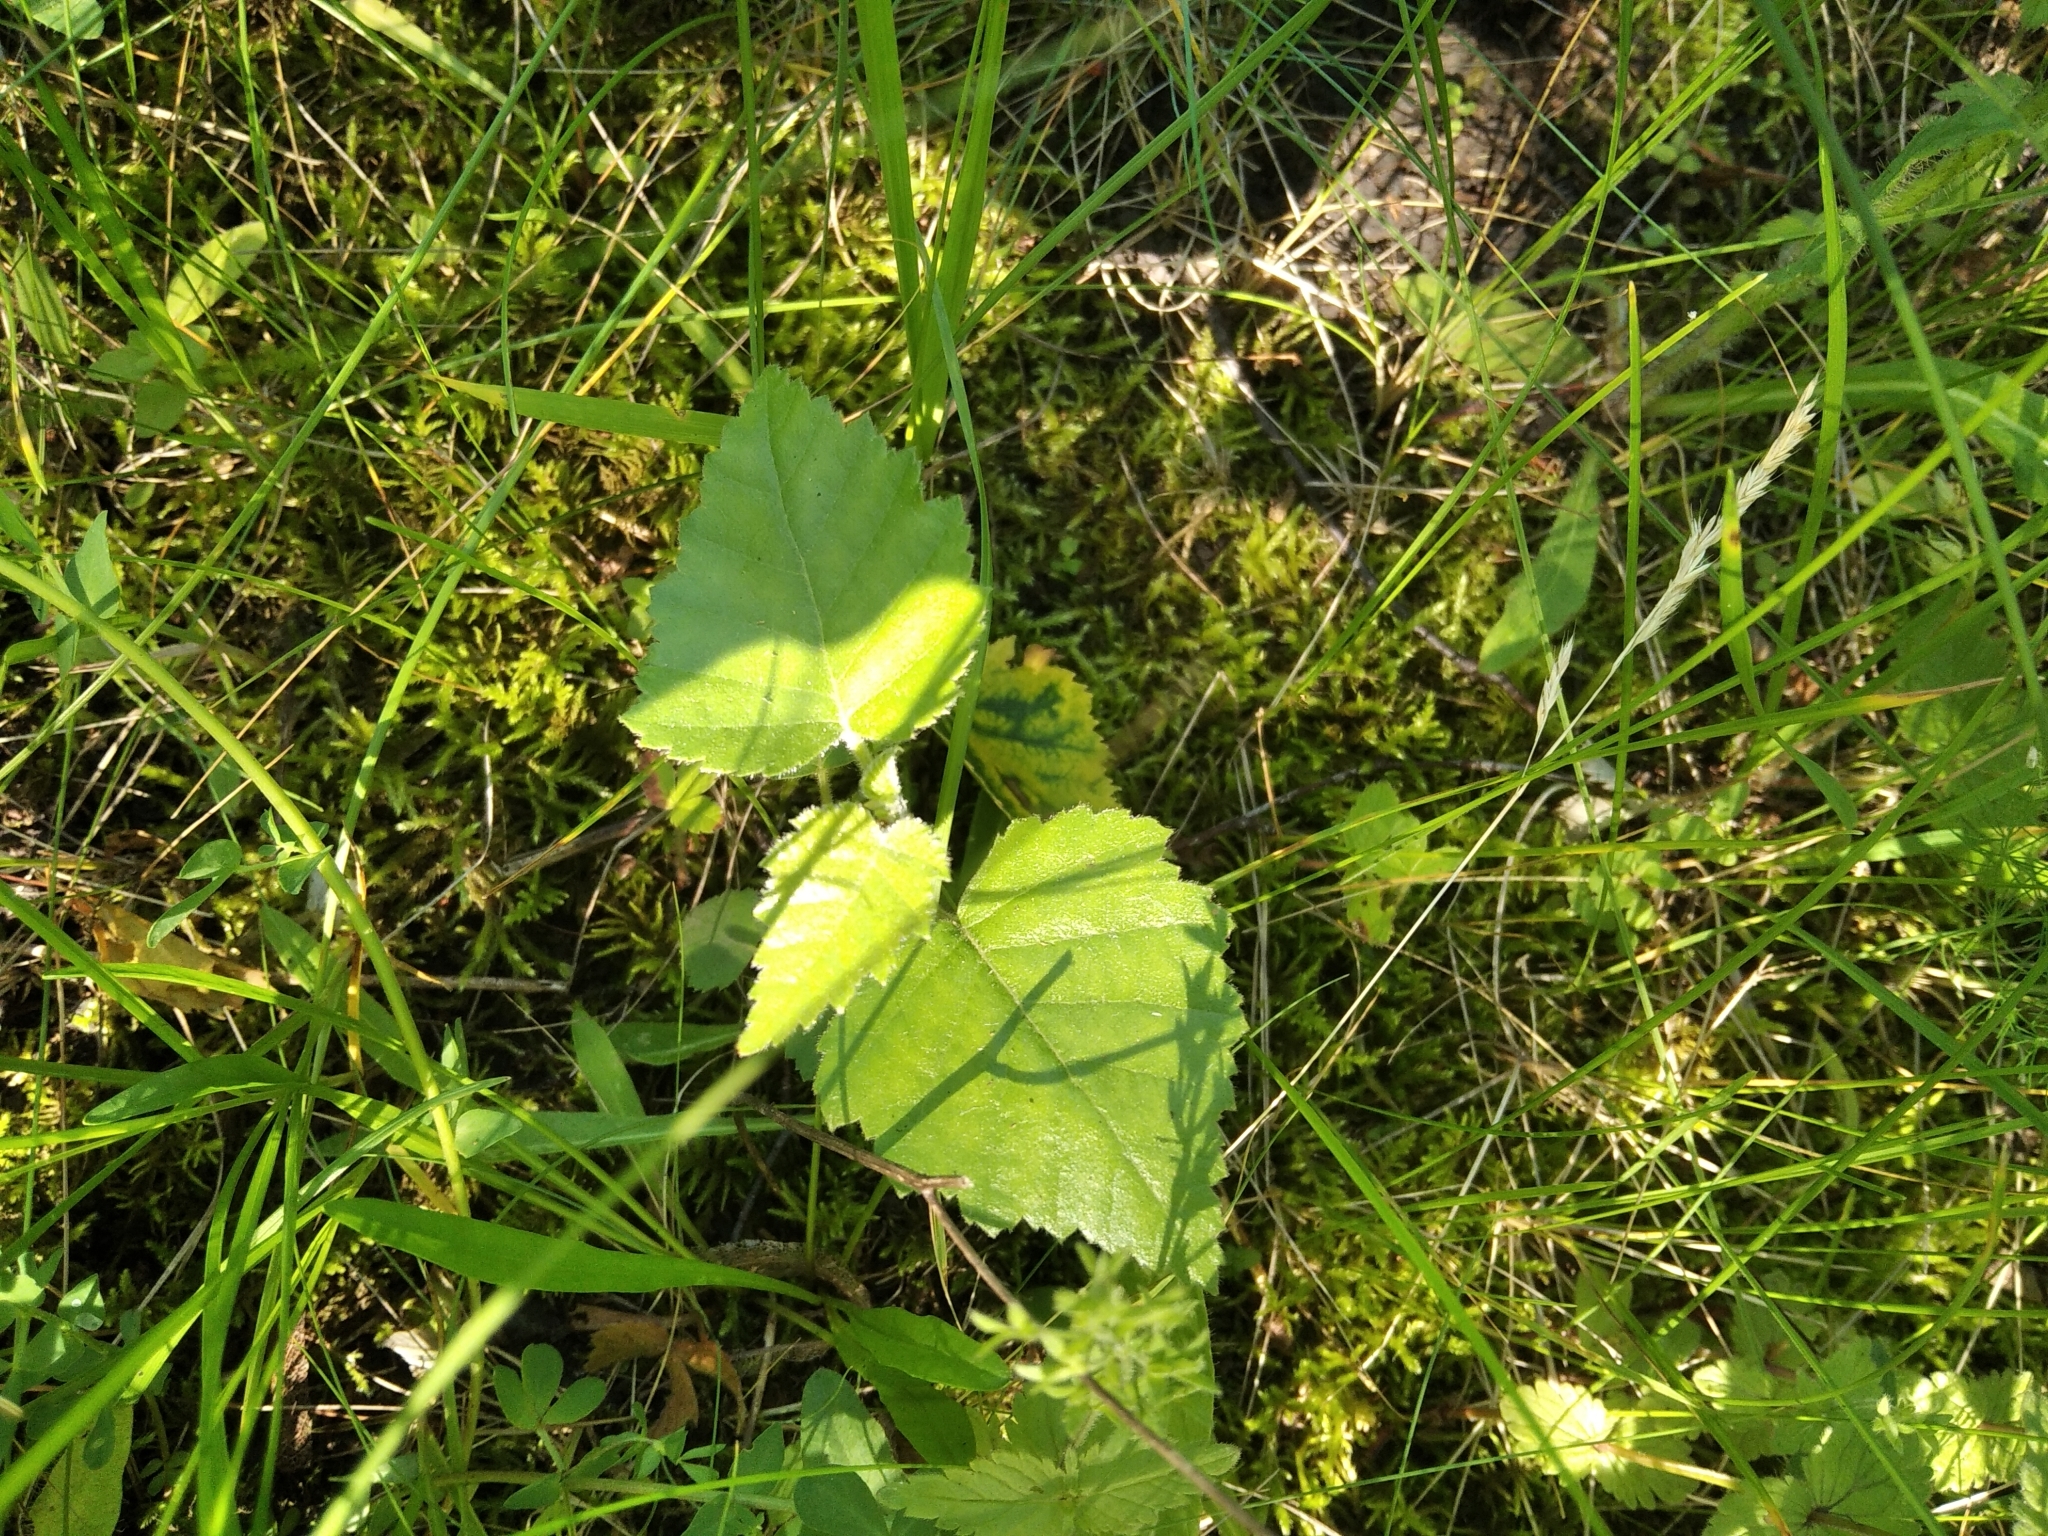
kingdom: Plantae
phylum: Tracheophyta
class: Magnoliopsida
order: Fagales
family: Betulaceae
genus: Betula
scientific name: Betula pubescens
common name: Downy birch
